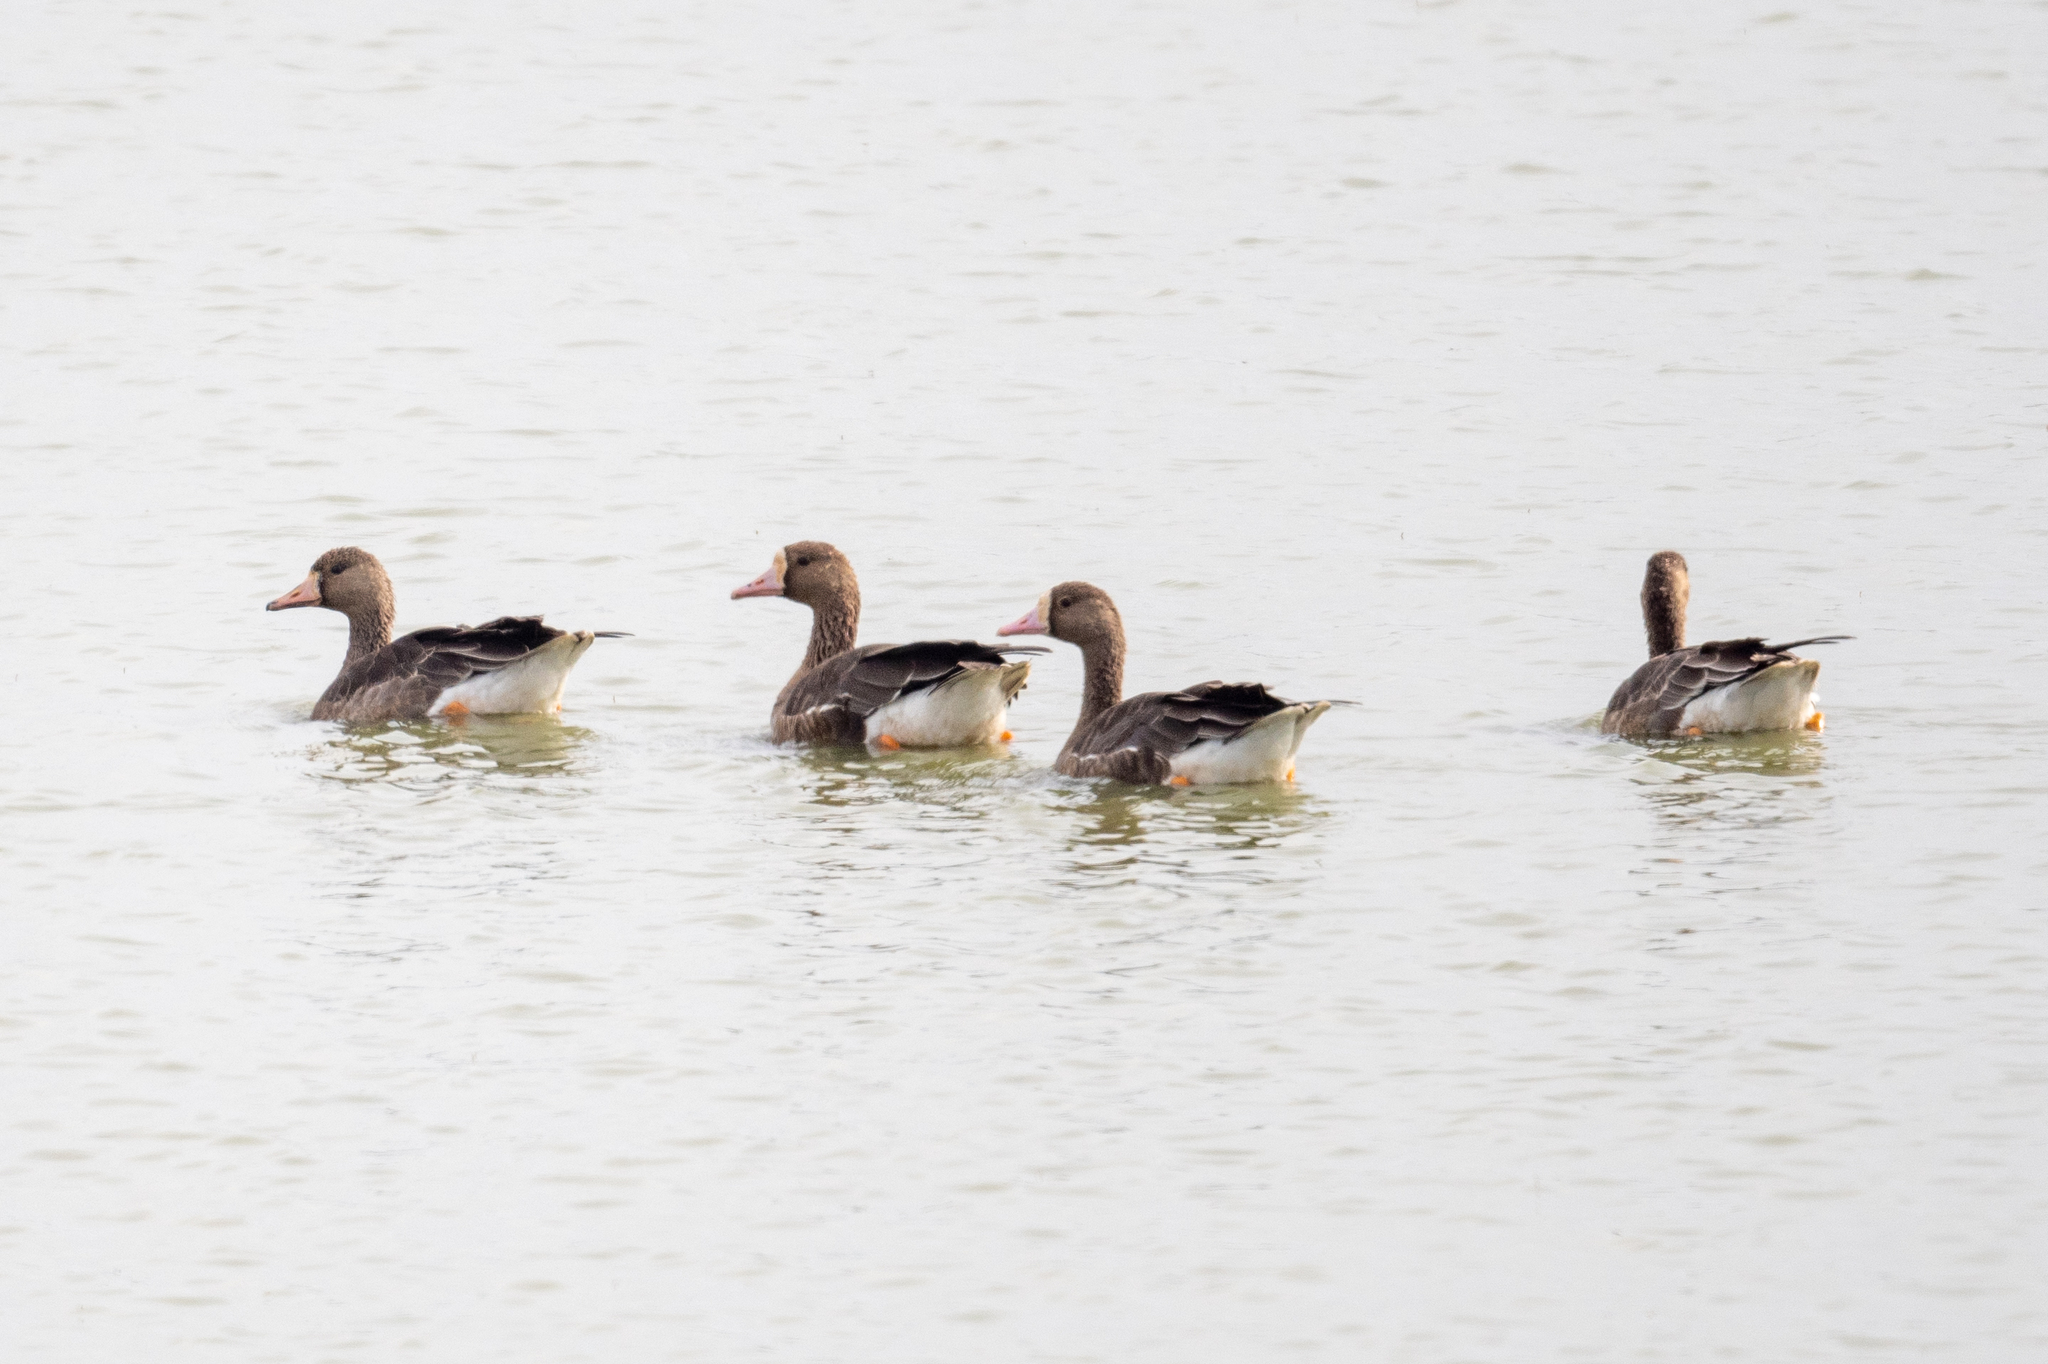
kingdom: Animalia
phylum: Chordata
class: Aves
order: Anseriformes
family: Anatidae
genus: Anser
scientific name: Anser albifrons
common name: Greater white-fronted goose
